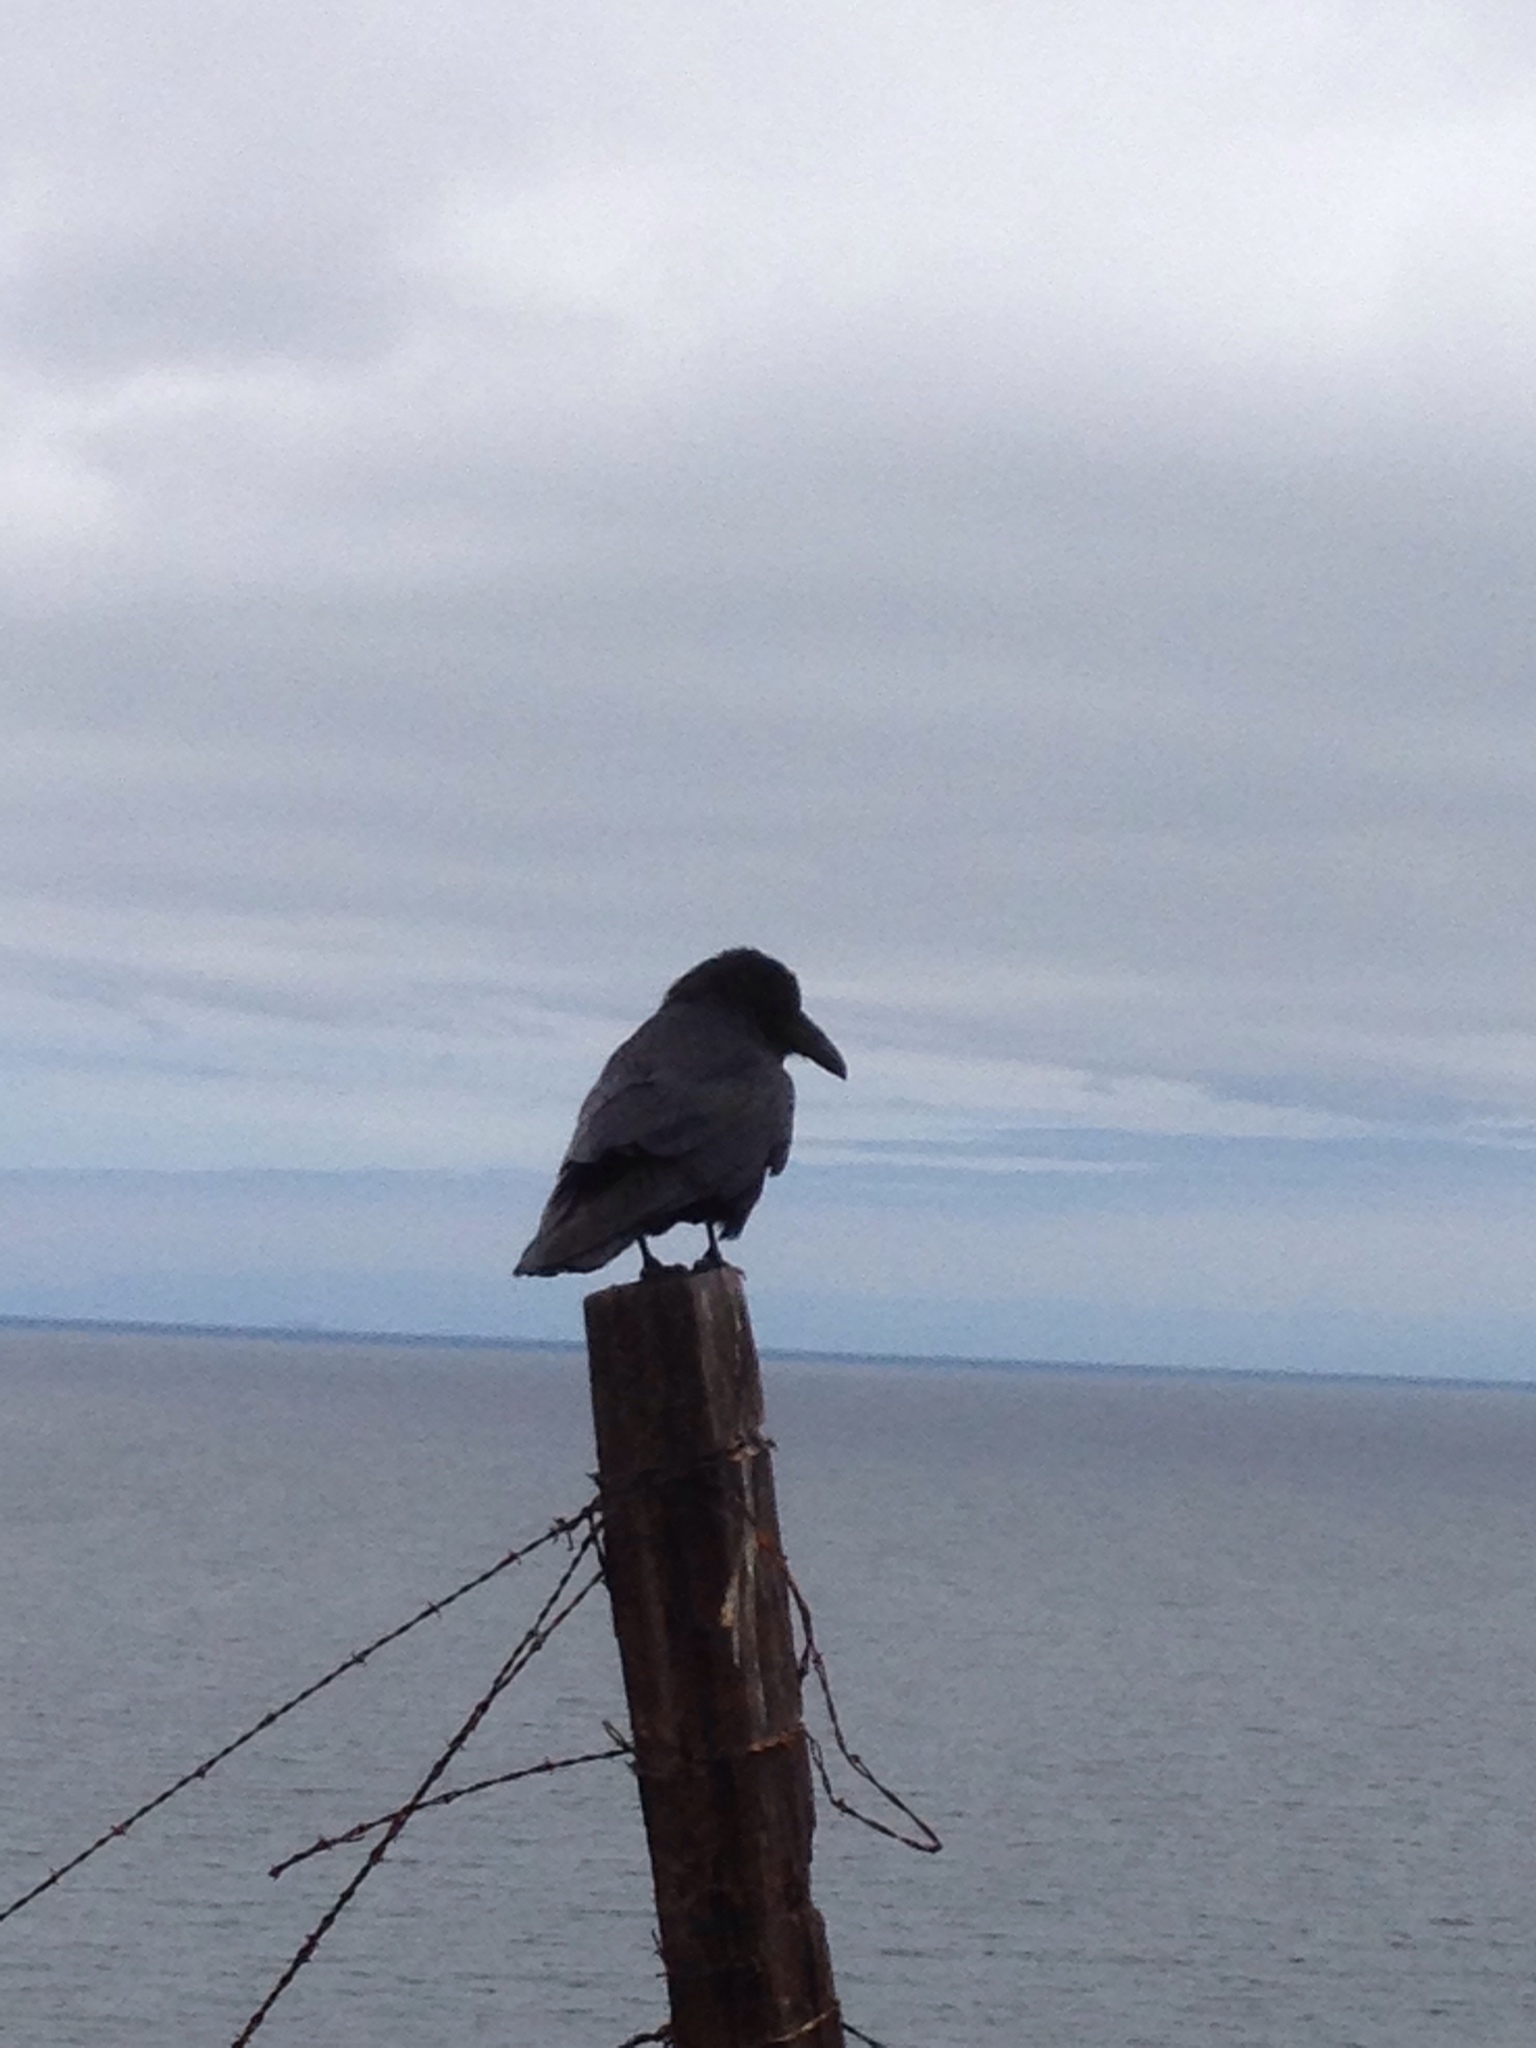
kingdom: Animalia
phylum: Chordata
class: Aves
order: Passeriformes
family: Corvidae
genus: Corvus
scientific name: Corvus corax
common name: Common raven
